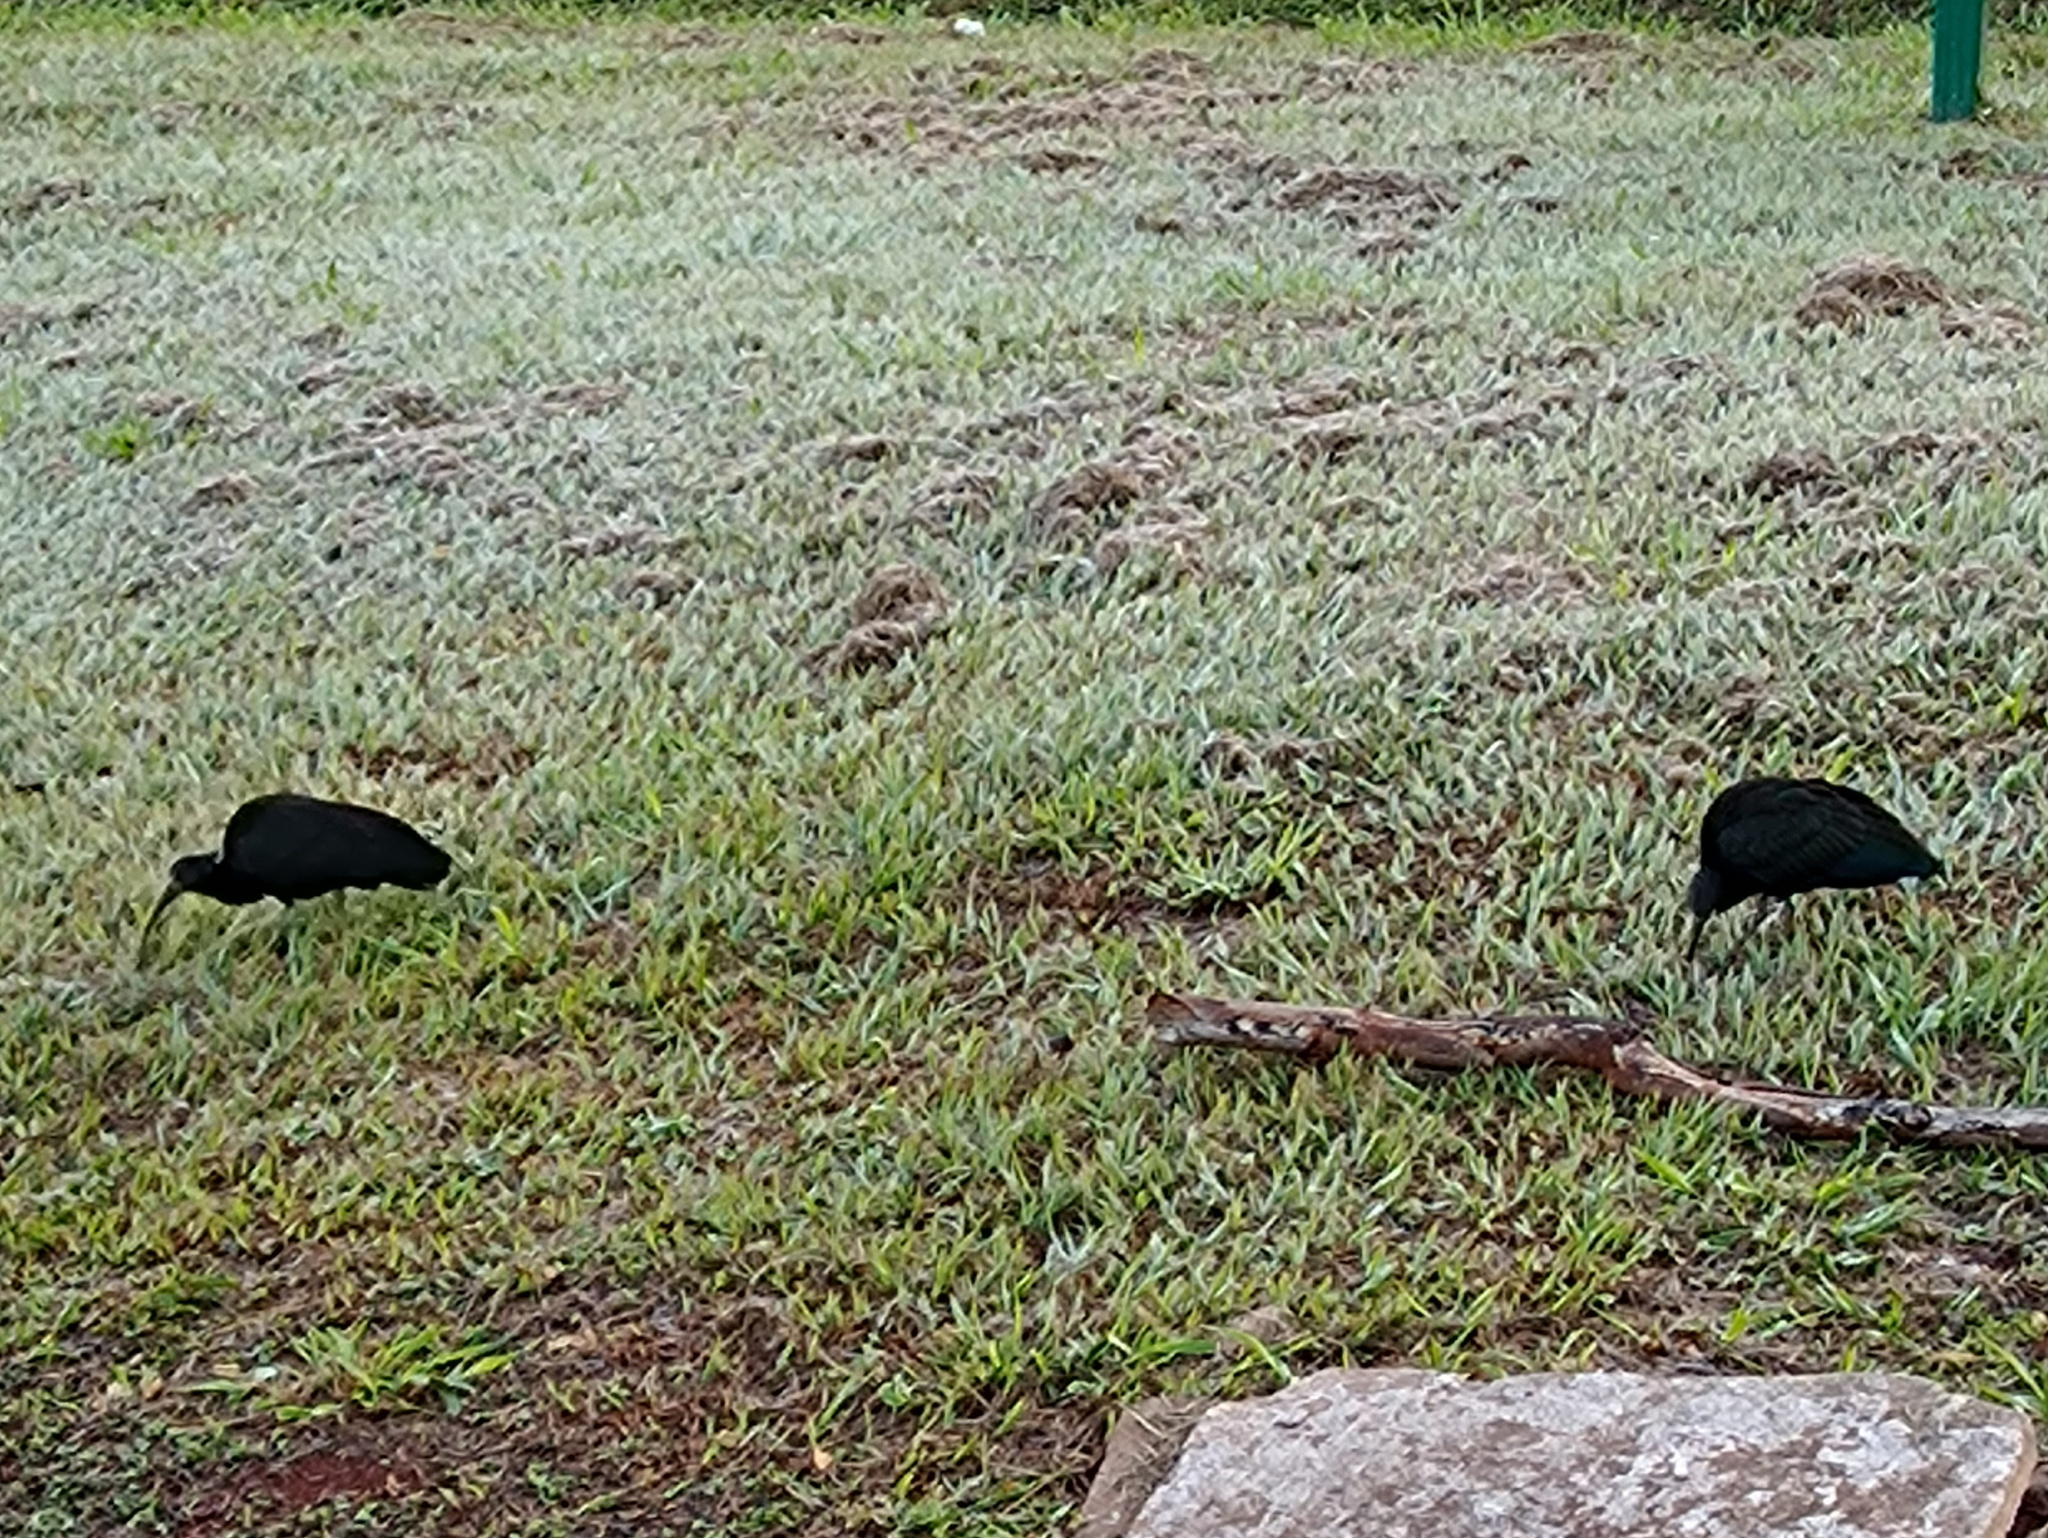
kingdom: Animalia
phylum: Chordata
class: Aves
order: Pelecaniformes
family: Threskiornithidae
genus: Mesembrinibis
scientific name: Mesembrinibis cayennensis
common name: Green ibis
